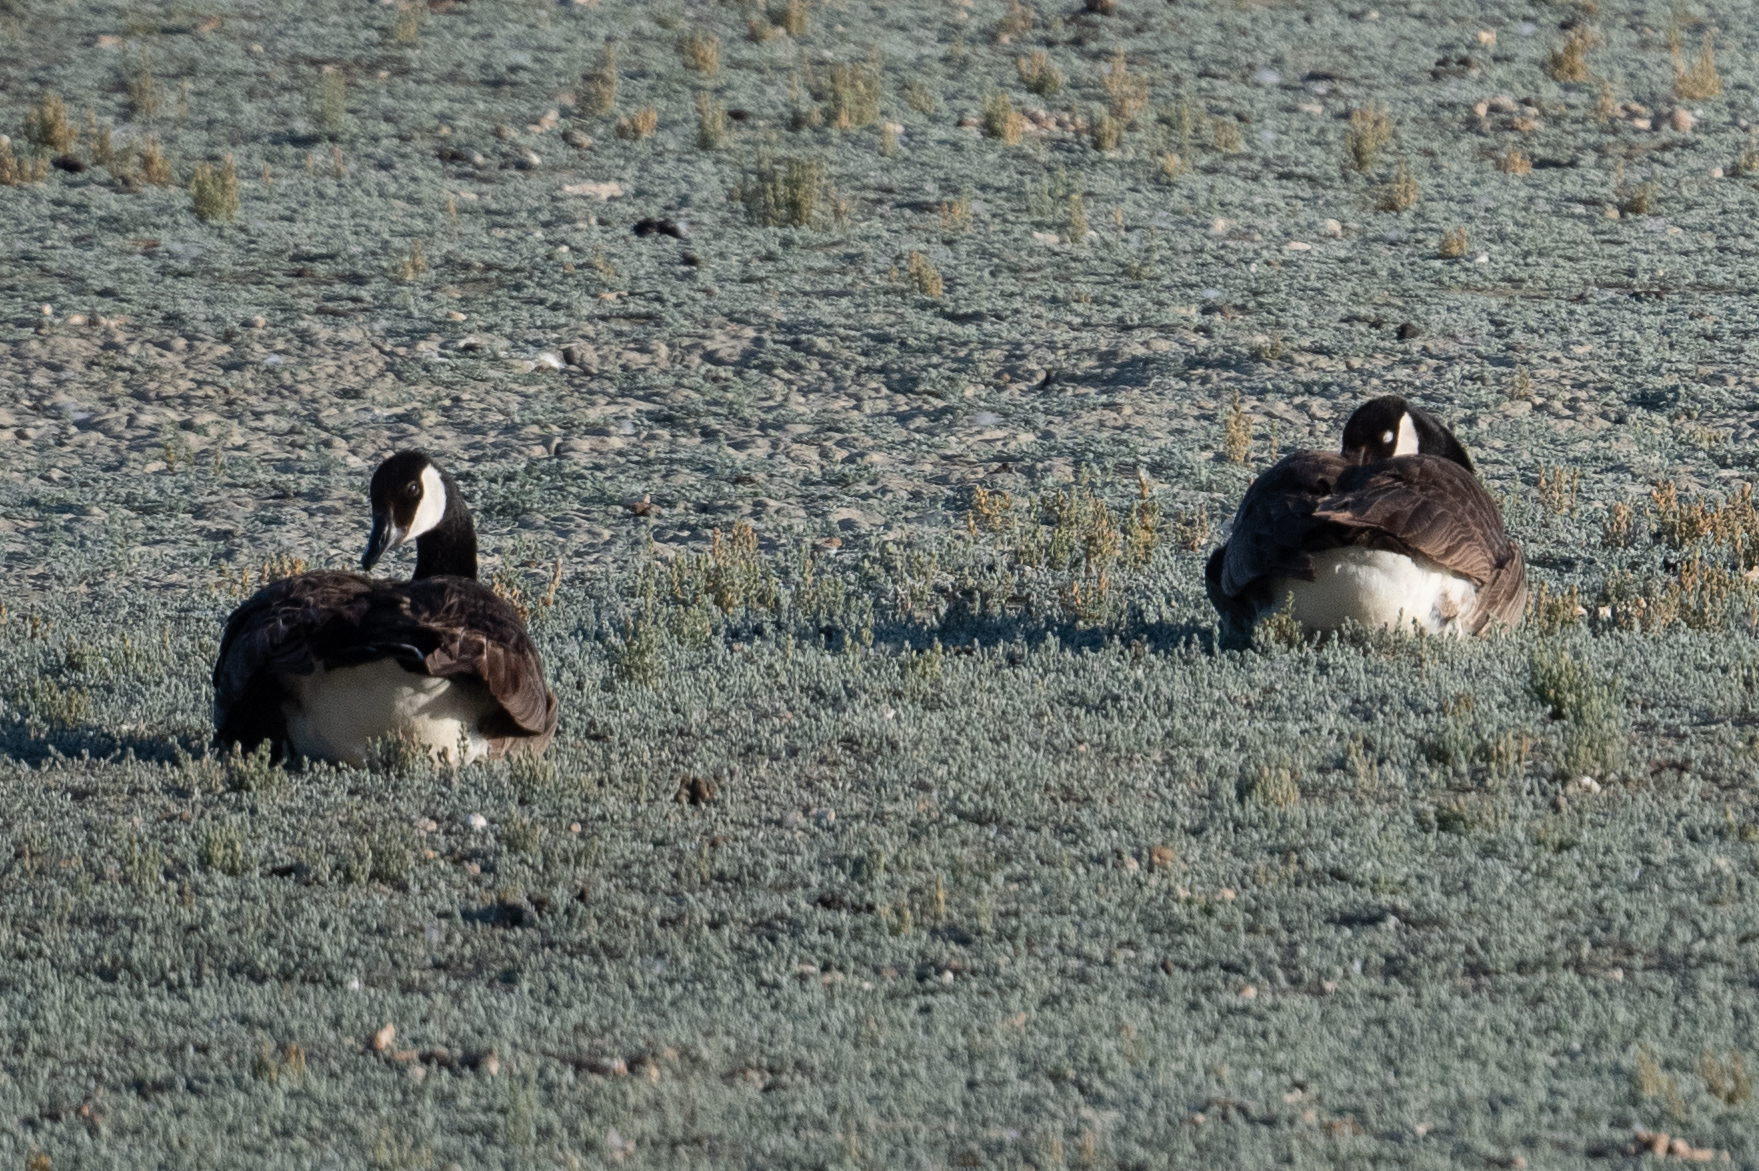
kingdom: Animalia
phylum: Chordata
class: Aves
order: Anseriformes
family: Anatidae
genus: Branta
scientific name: Branta canadensis
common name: Canada goose
